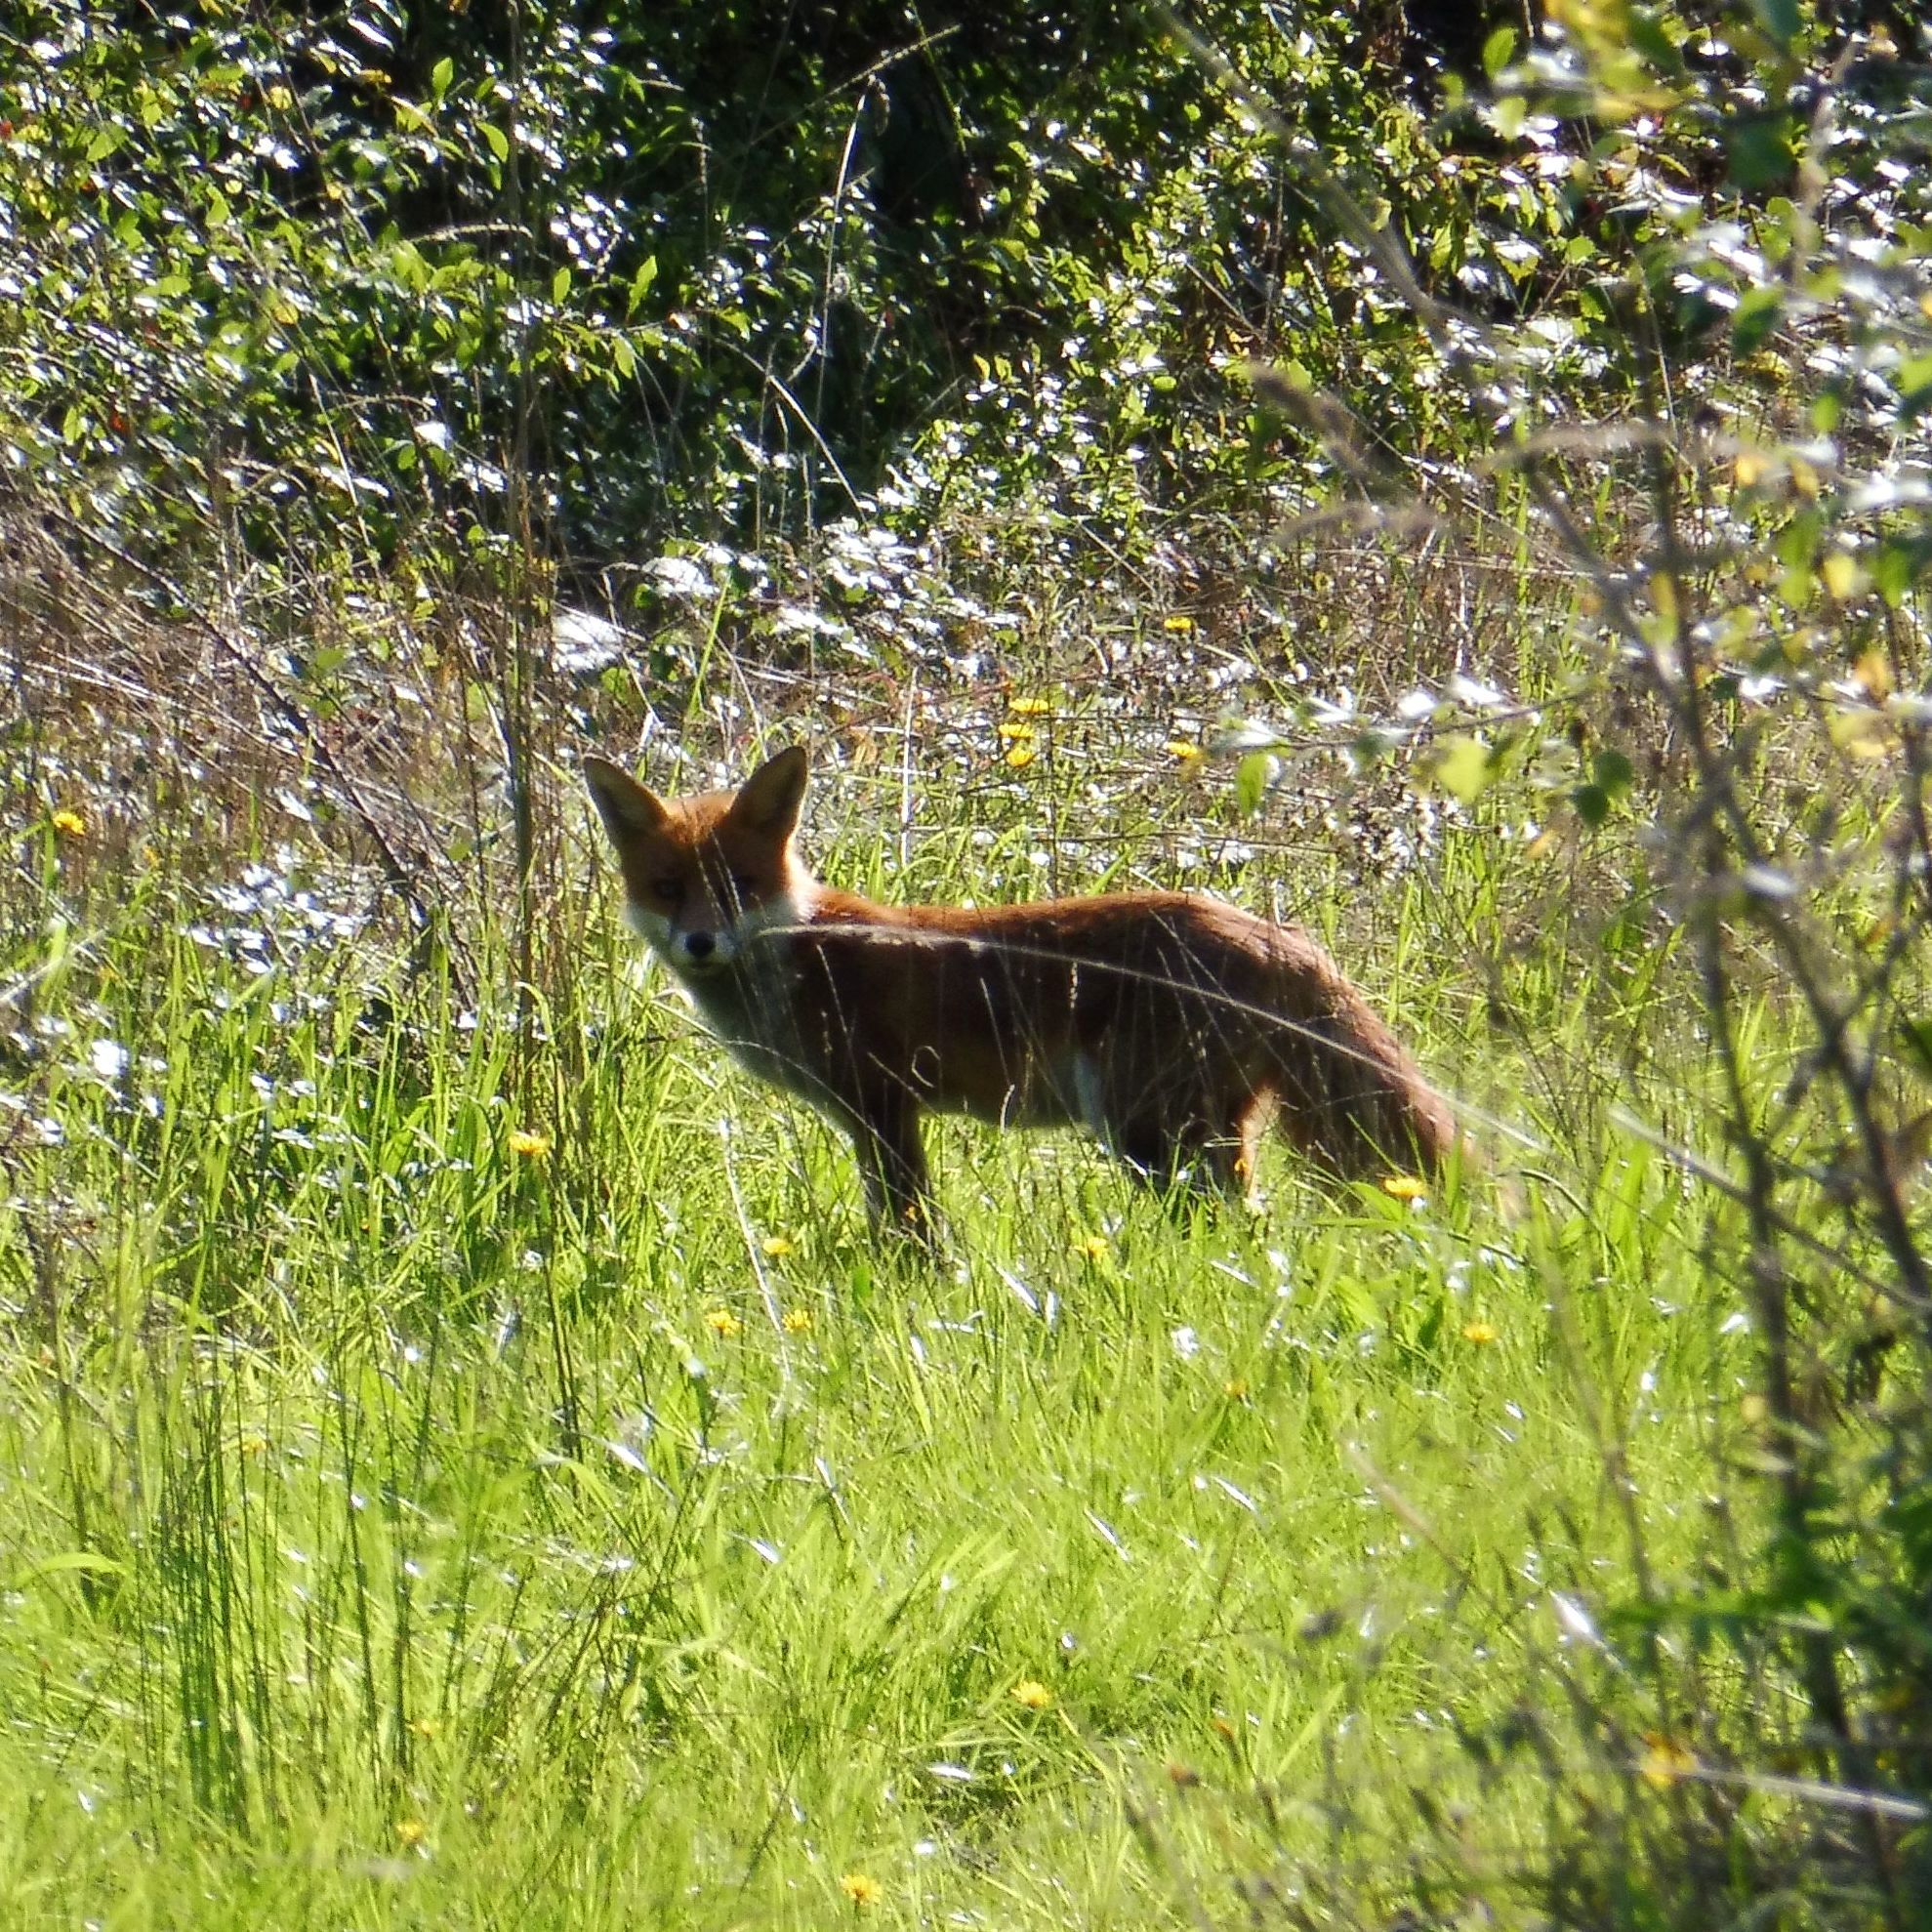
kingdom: Animalia
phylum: Chordata
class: Mammalia
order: Carnivora
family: Canidae
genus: Vulpes
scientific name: Vulpes vulpes
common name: Red fox
